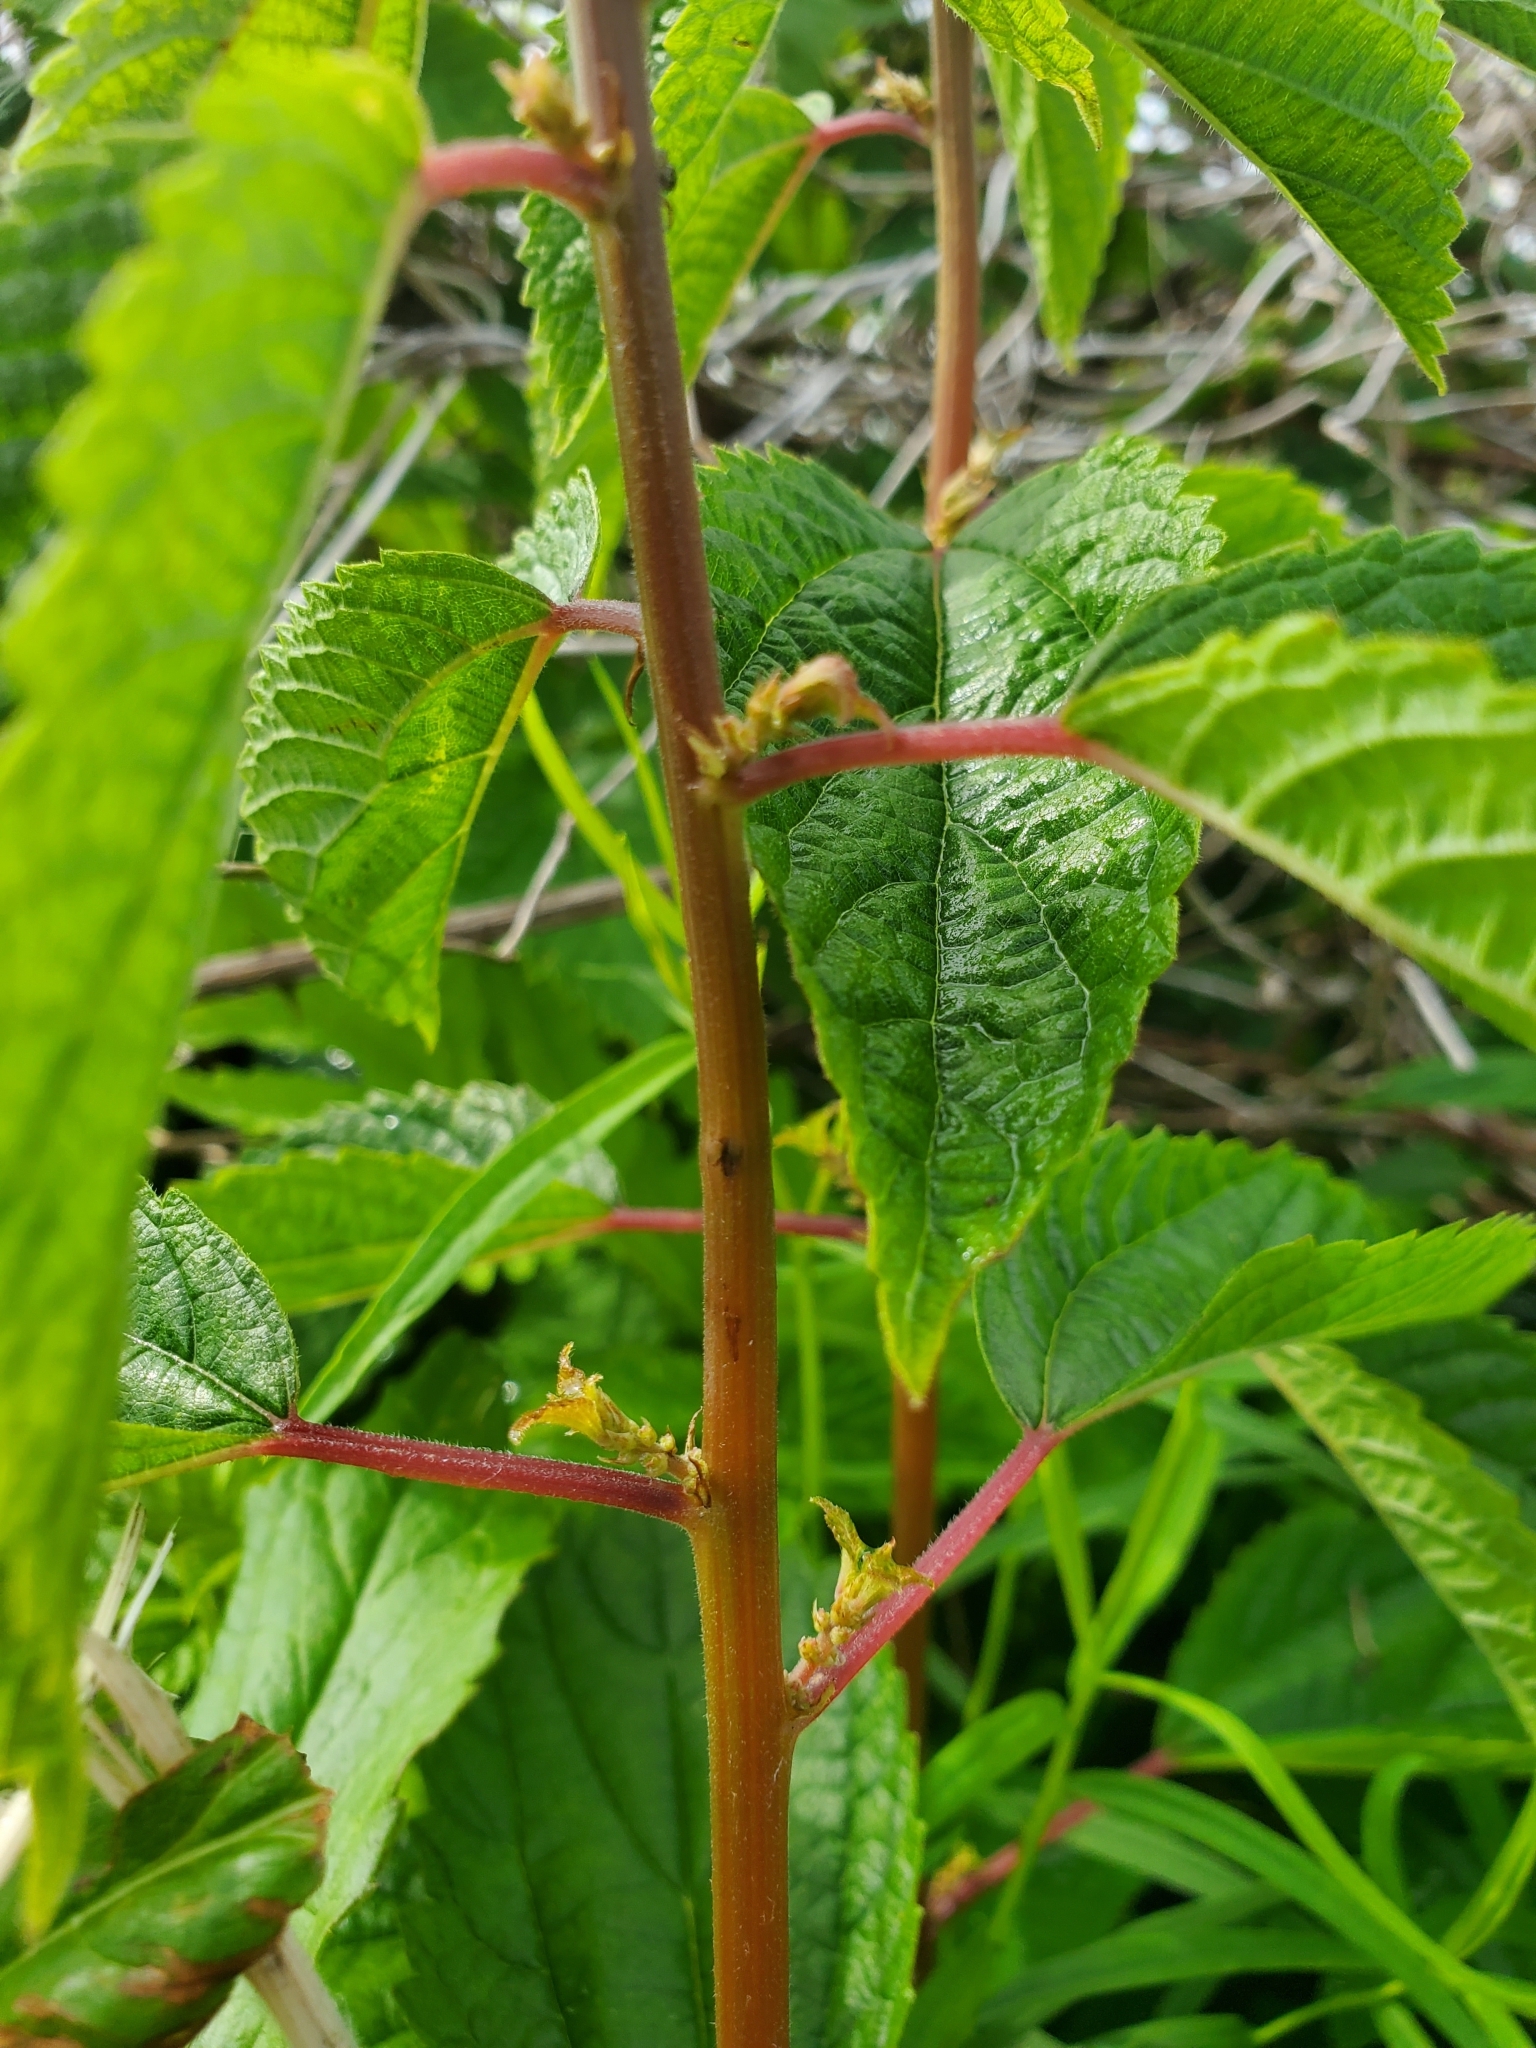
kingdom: Plantae
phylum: Tracheophyta
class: Magnoliopsida
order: Rosales
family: Urticaceae
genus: Boehmeria
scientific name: Boehmeria cylindrica
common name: Bog-hemp
